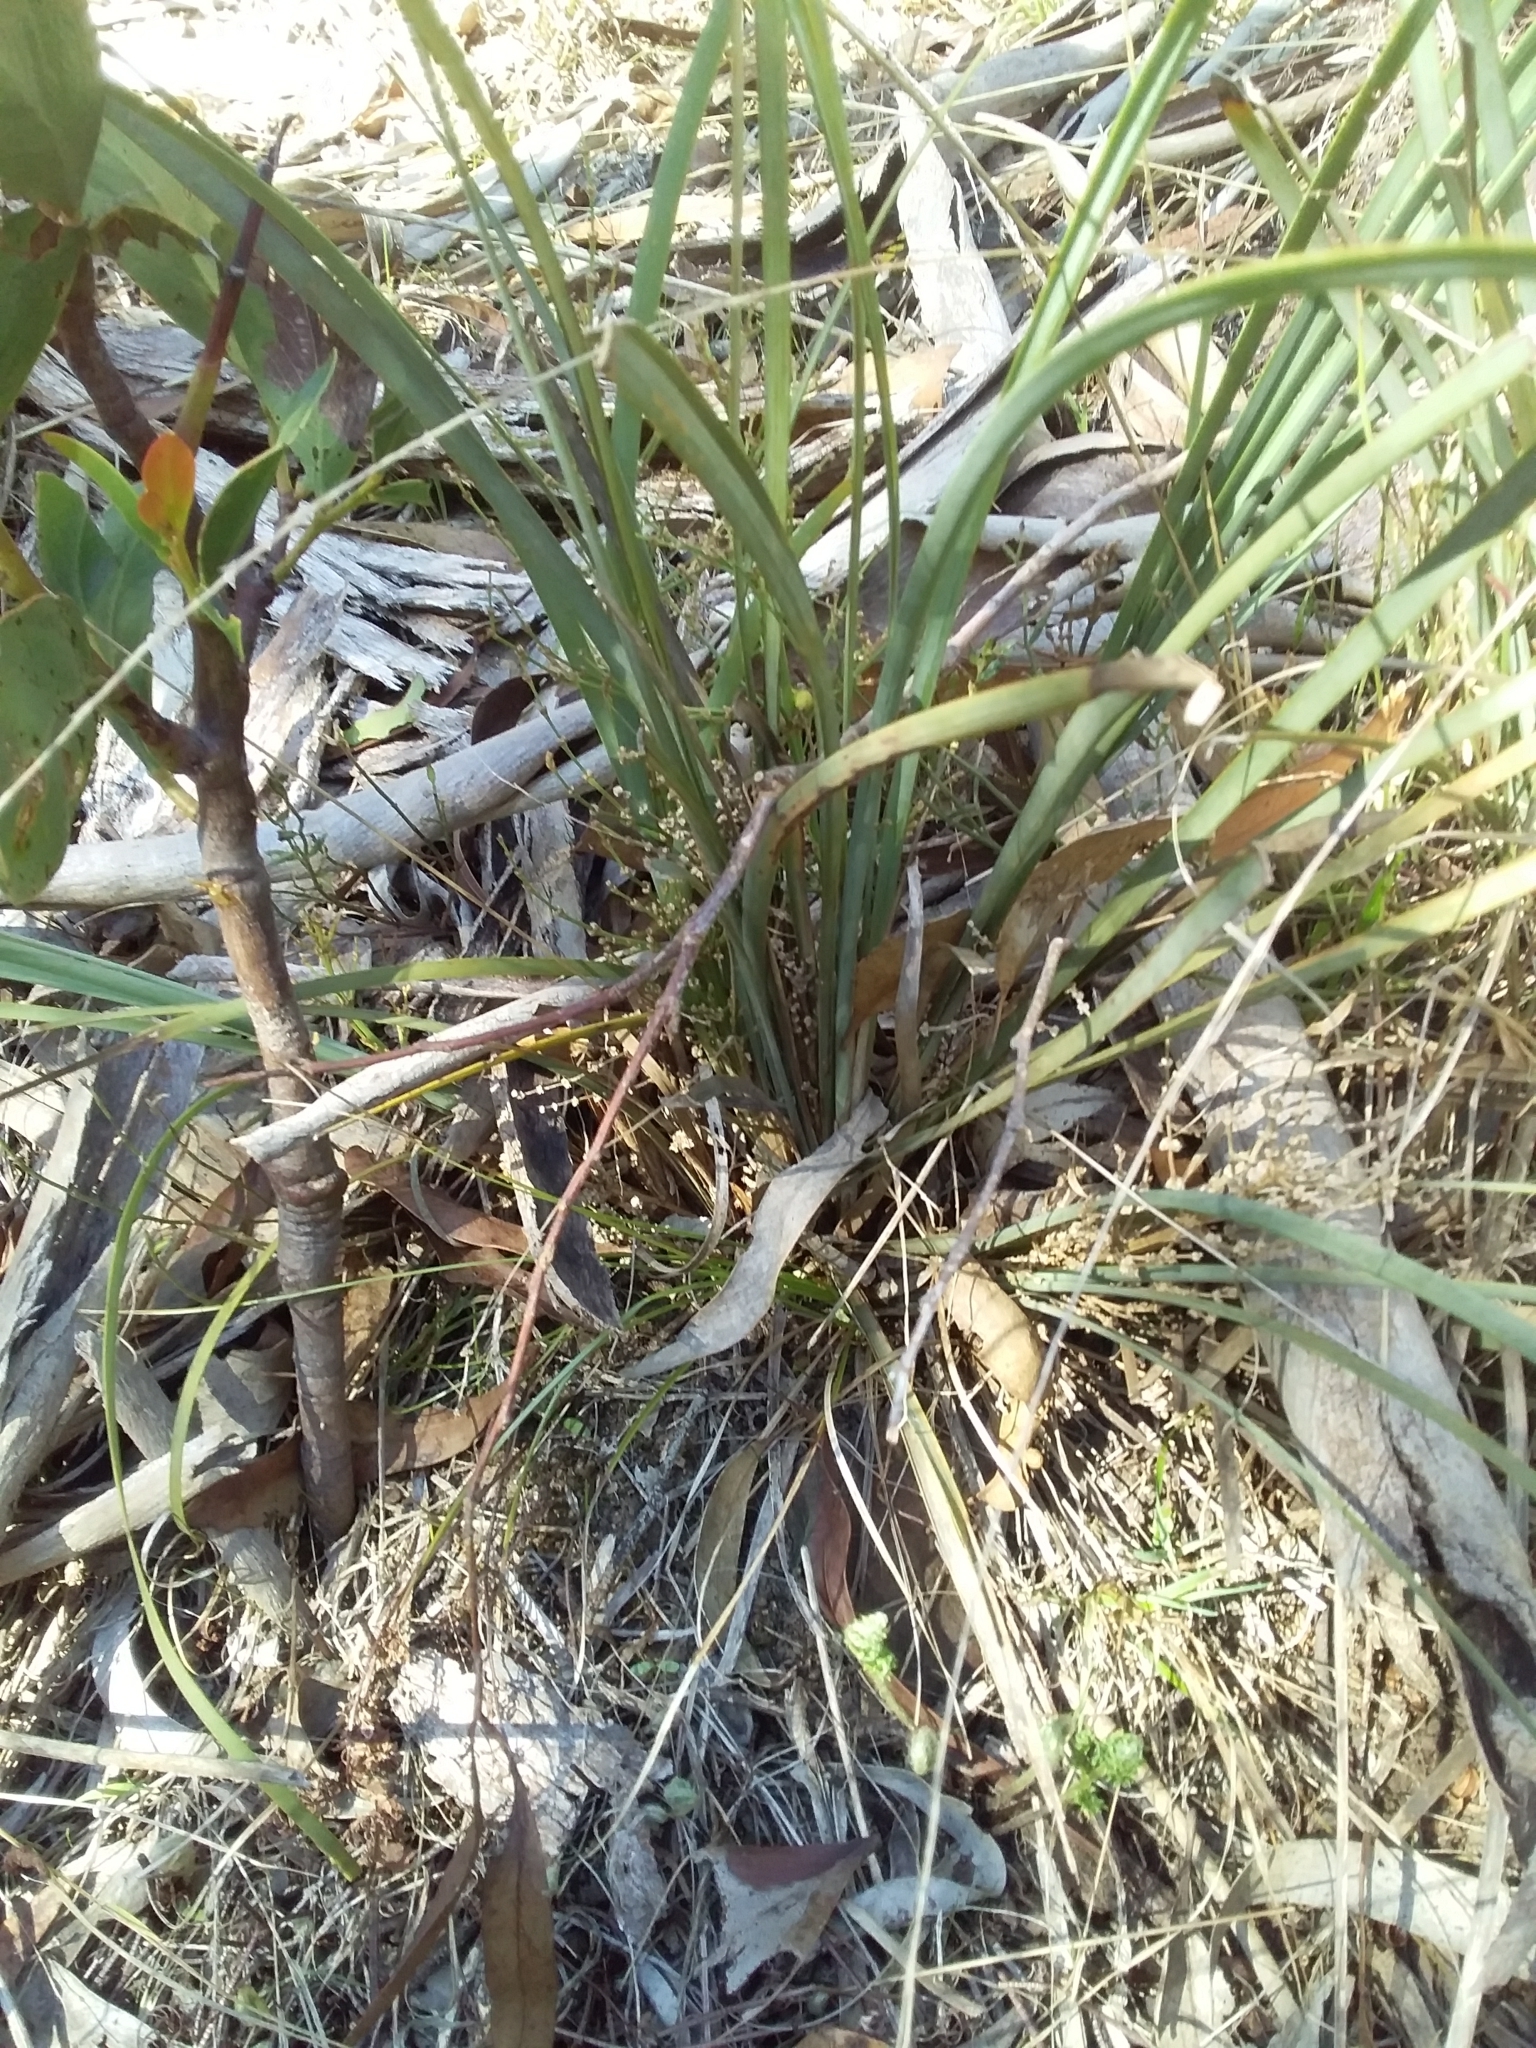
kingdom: Plantae
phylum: Tracheophyta
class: Liliopsida
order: Asparagales
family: Asparagaceae
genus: Lomandra
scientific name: Lomandra multiflora
